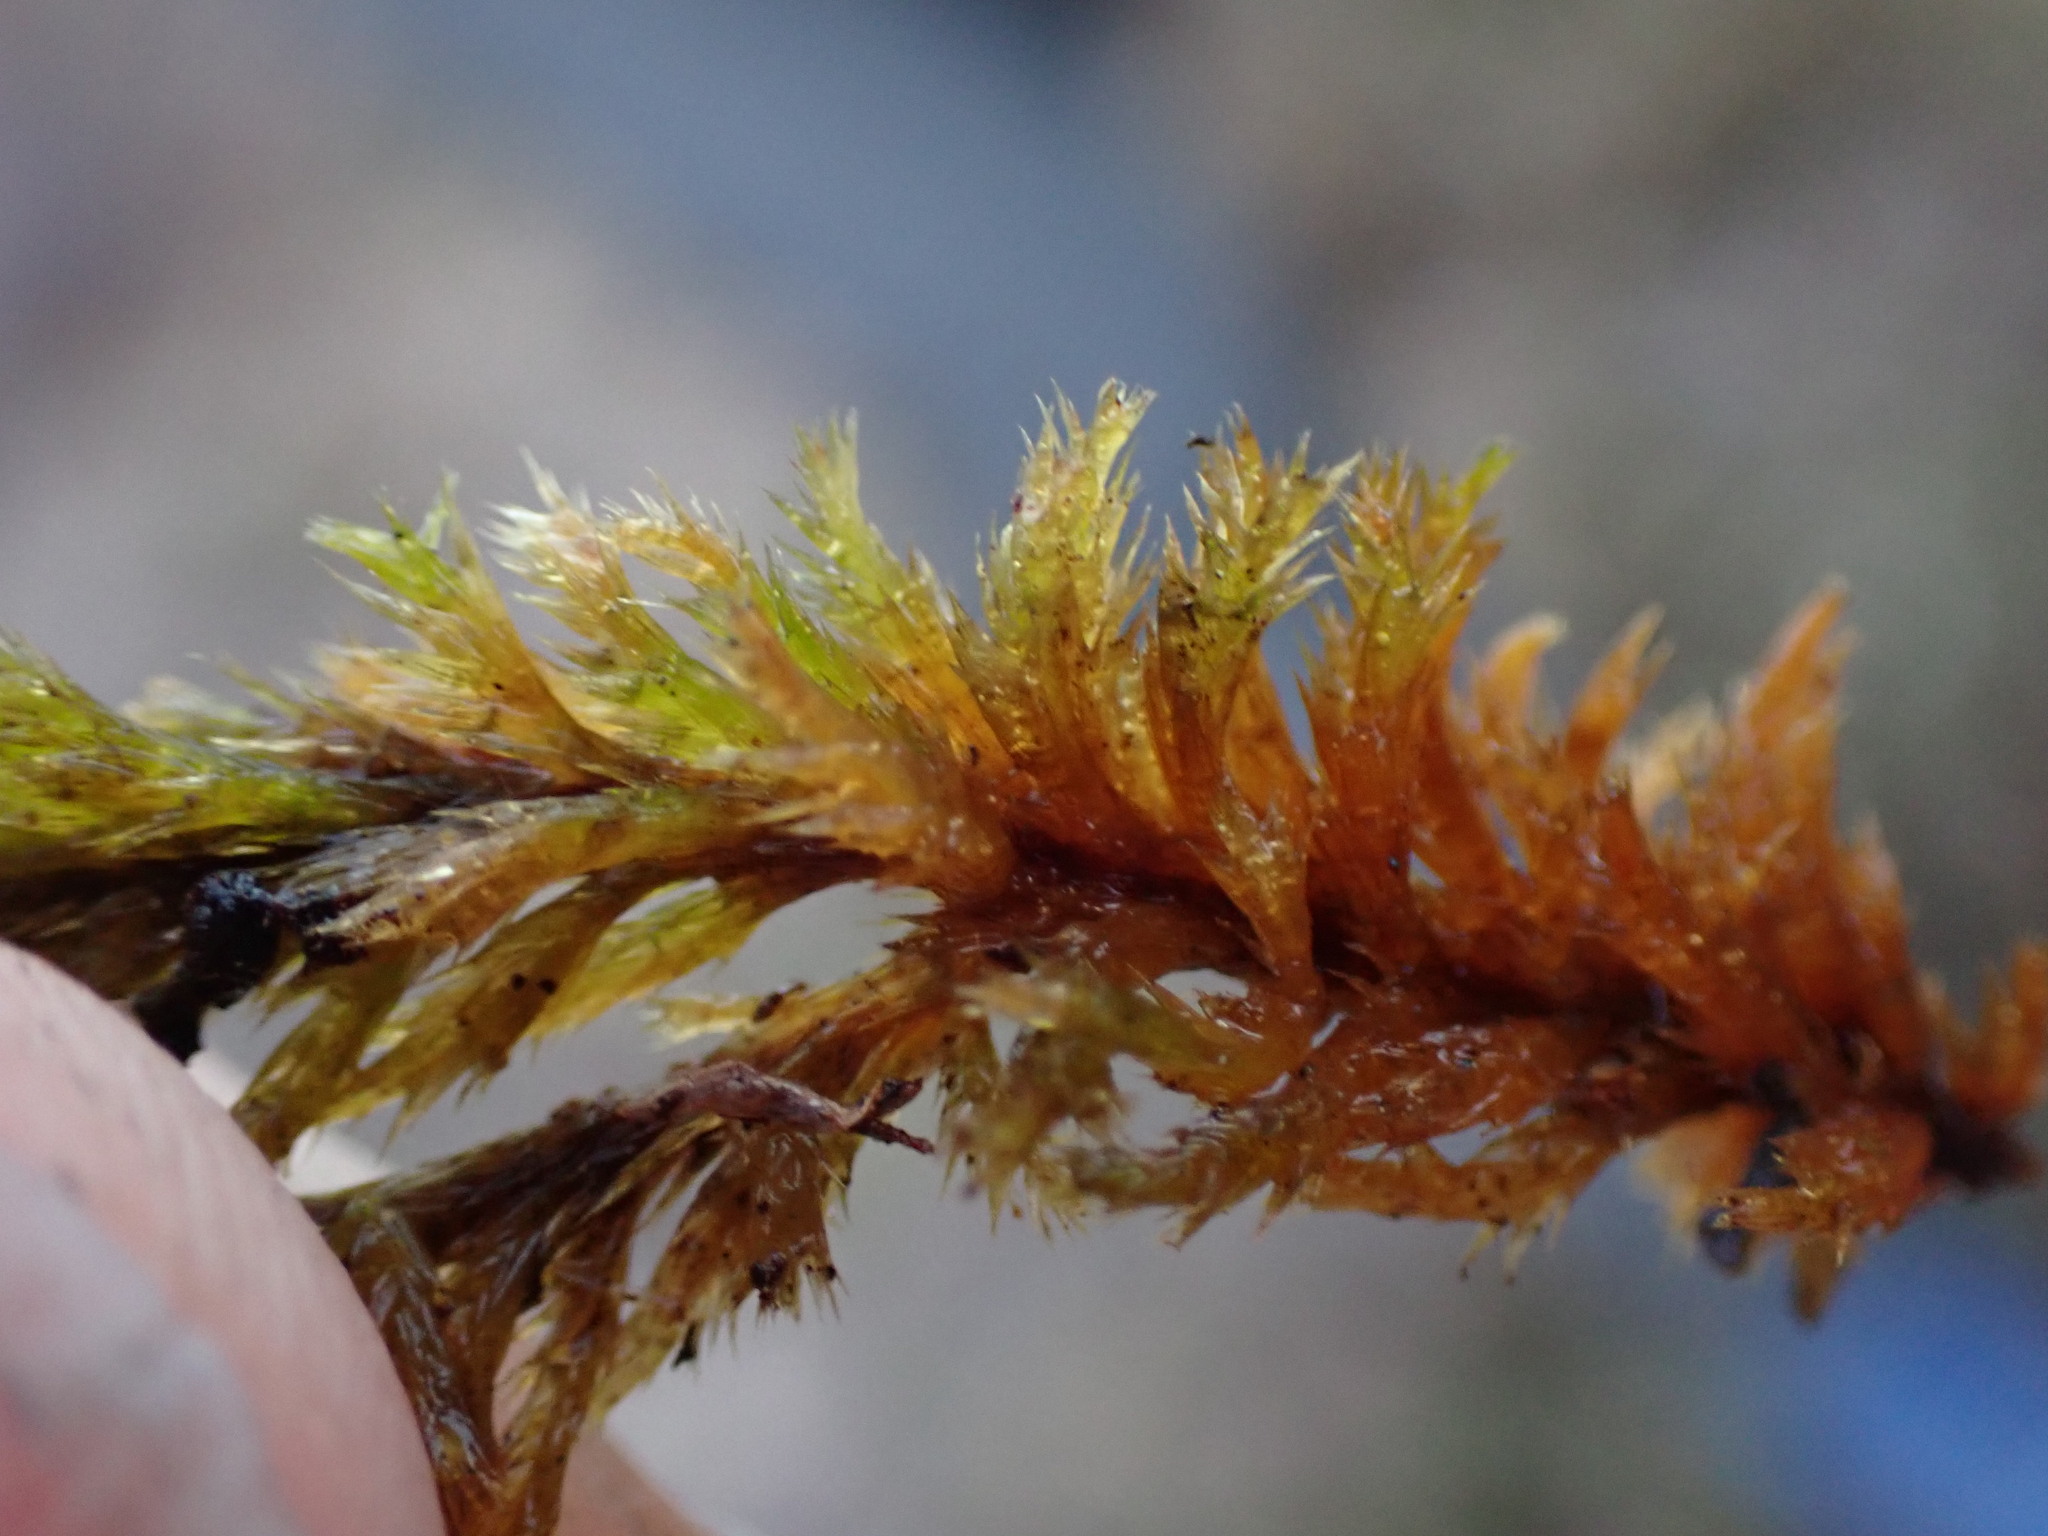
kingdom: Plantae
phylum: Bryophyta
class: Bryopsida
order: Hypnales
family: Amblystegiaceae
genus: Tomentypnum
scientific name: Tomentypnum nitens
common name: Golden fuzzy fen moss
